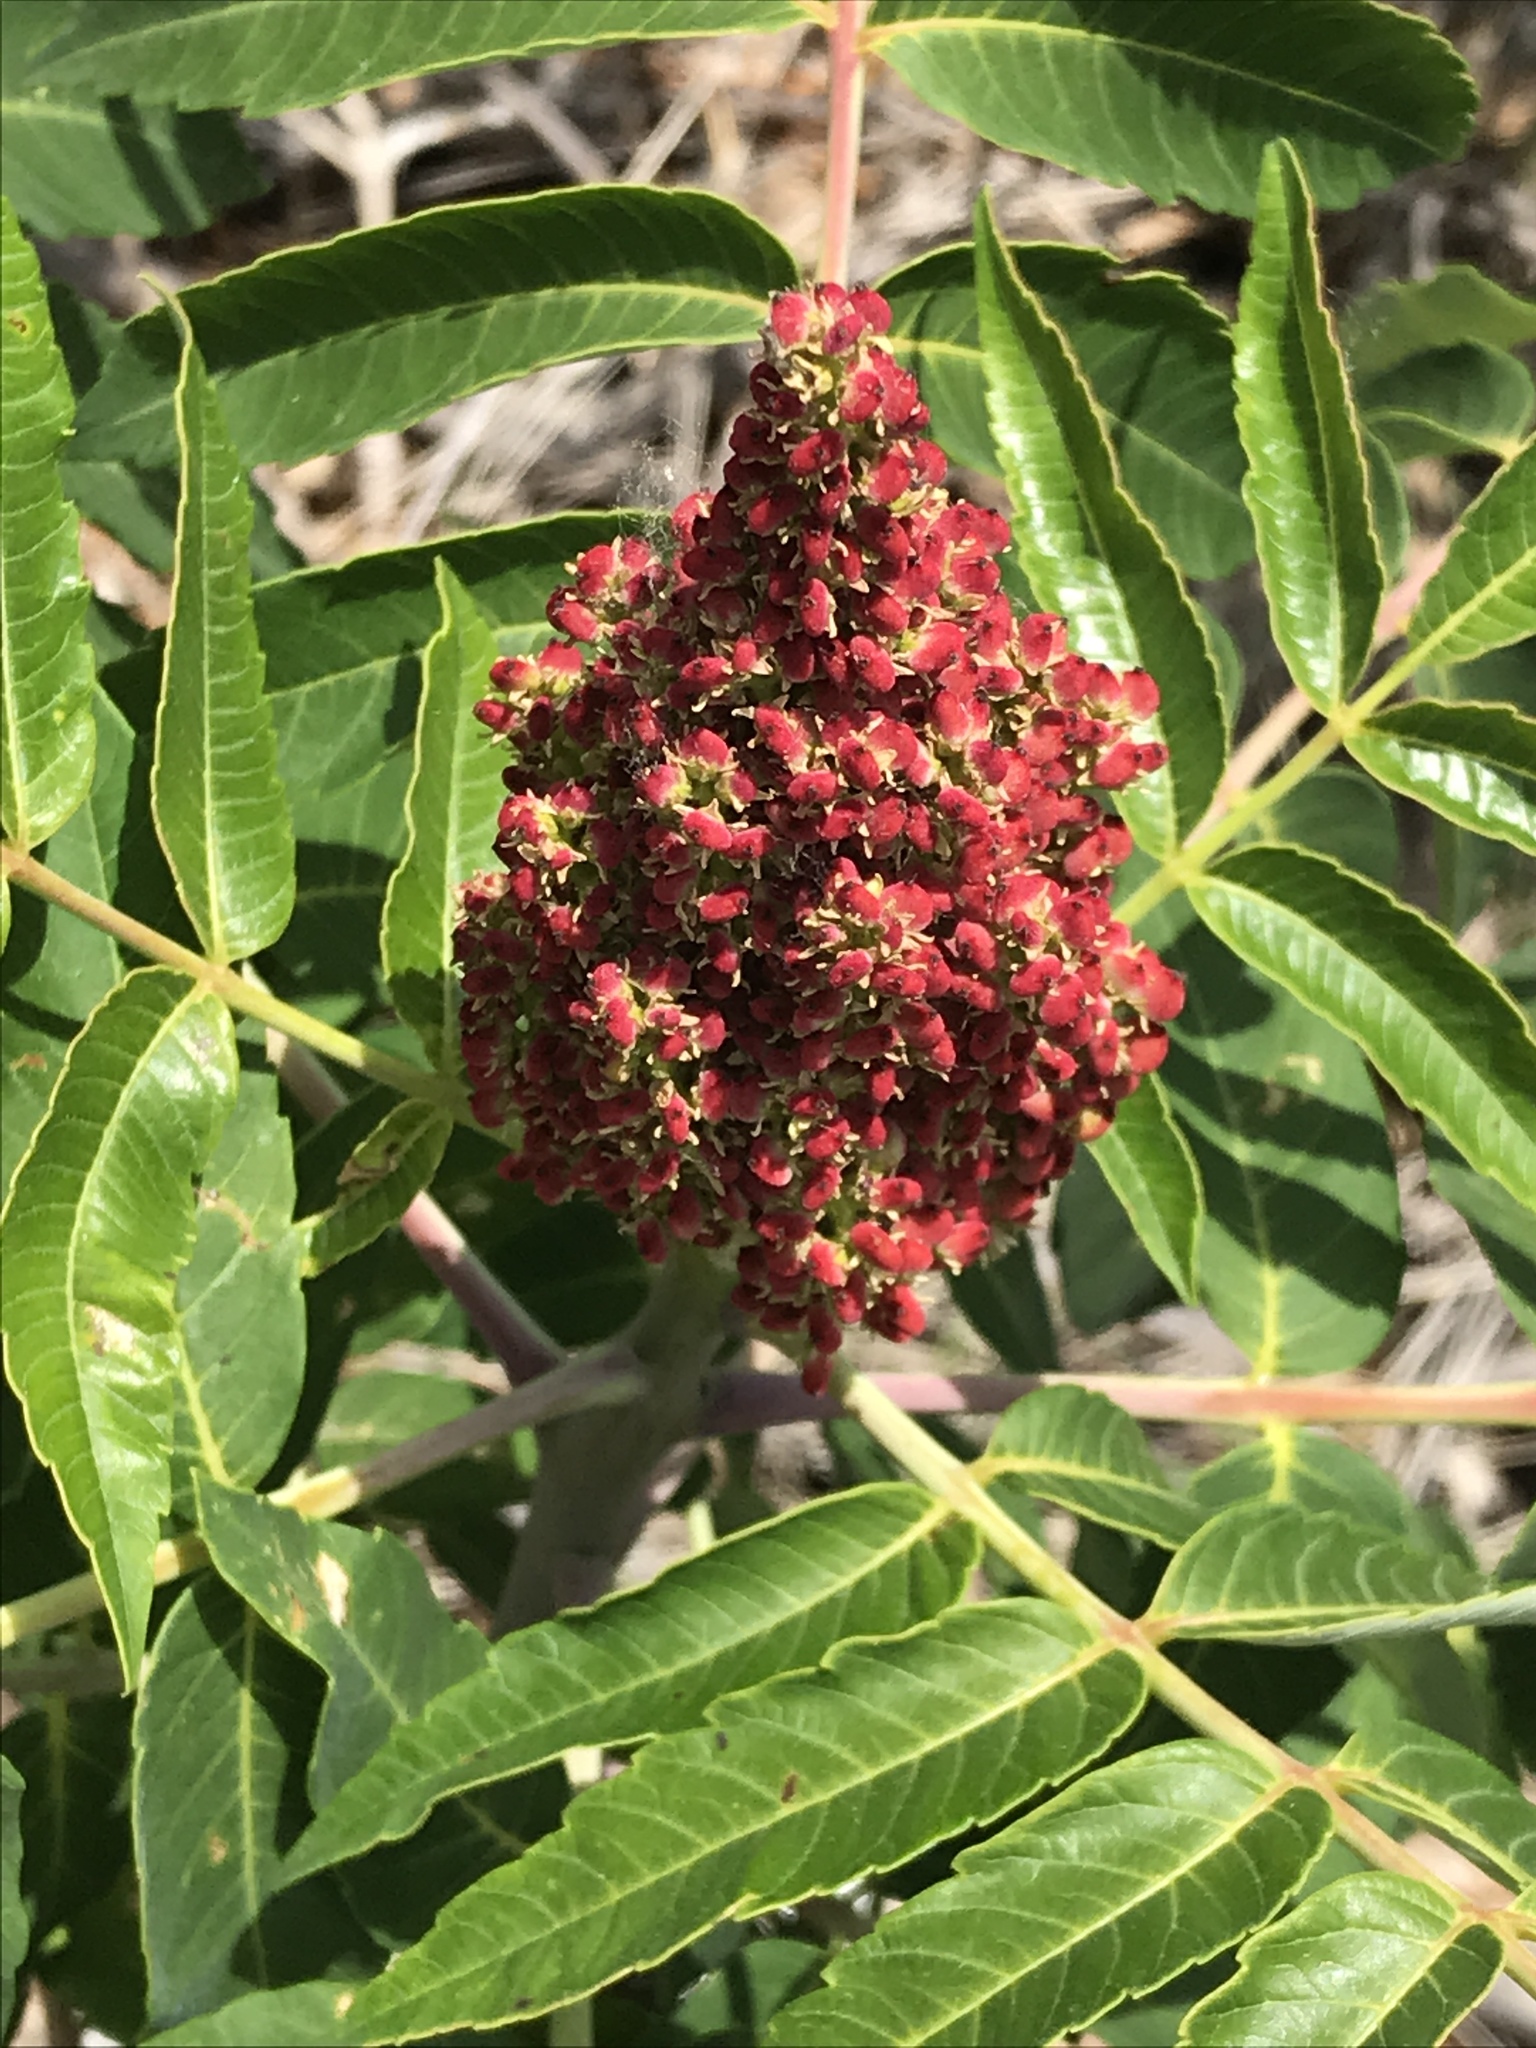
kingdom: Plantae
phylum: Tracheophyta
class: Magnoliopsida
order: Sapindales
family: Anacardiaceae
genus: Rhus
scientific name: Rhus glabra
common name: Scarlet sumac
